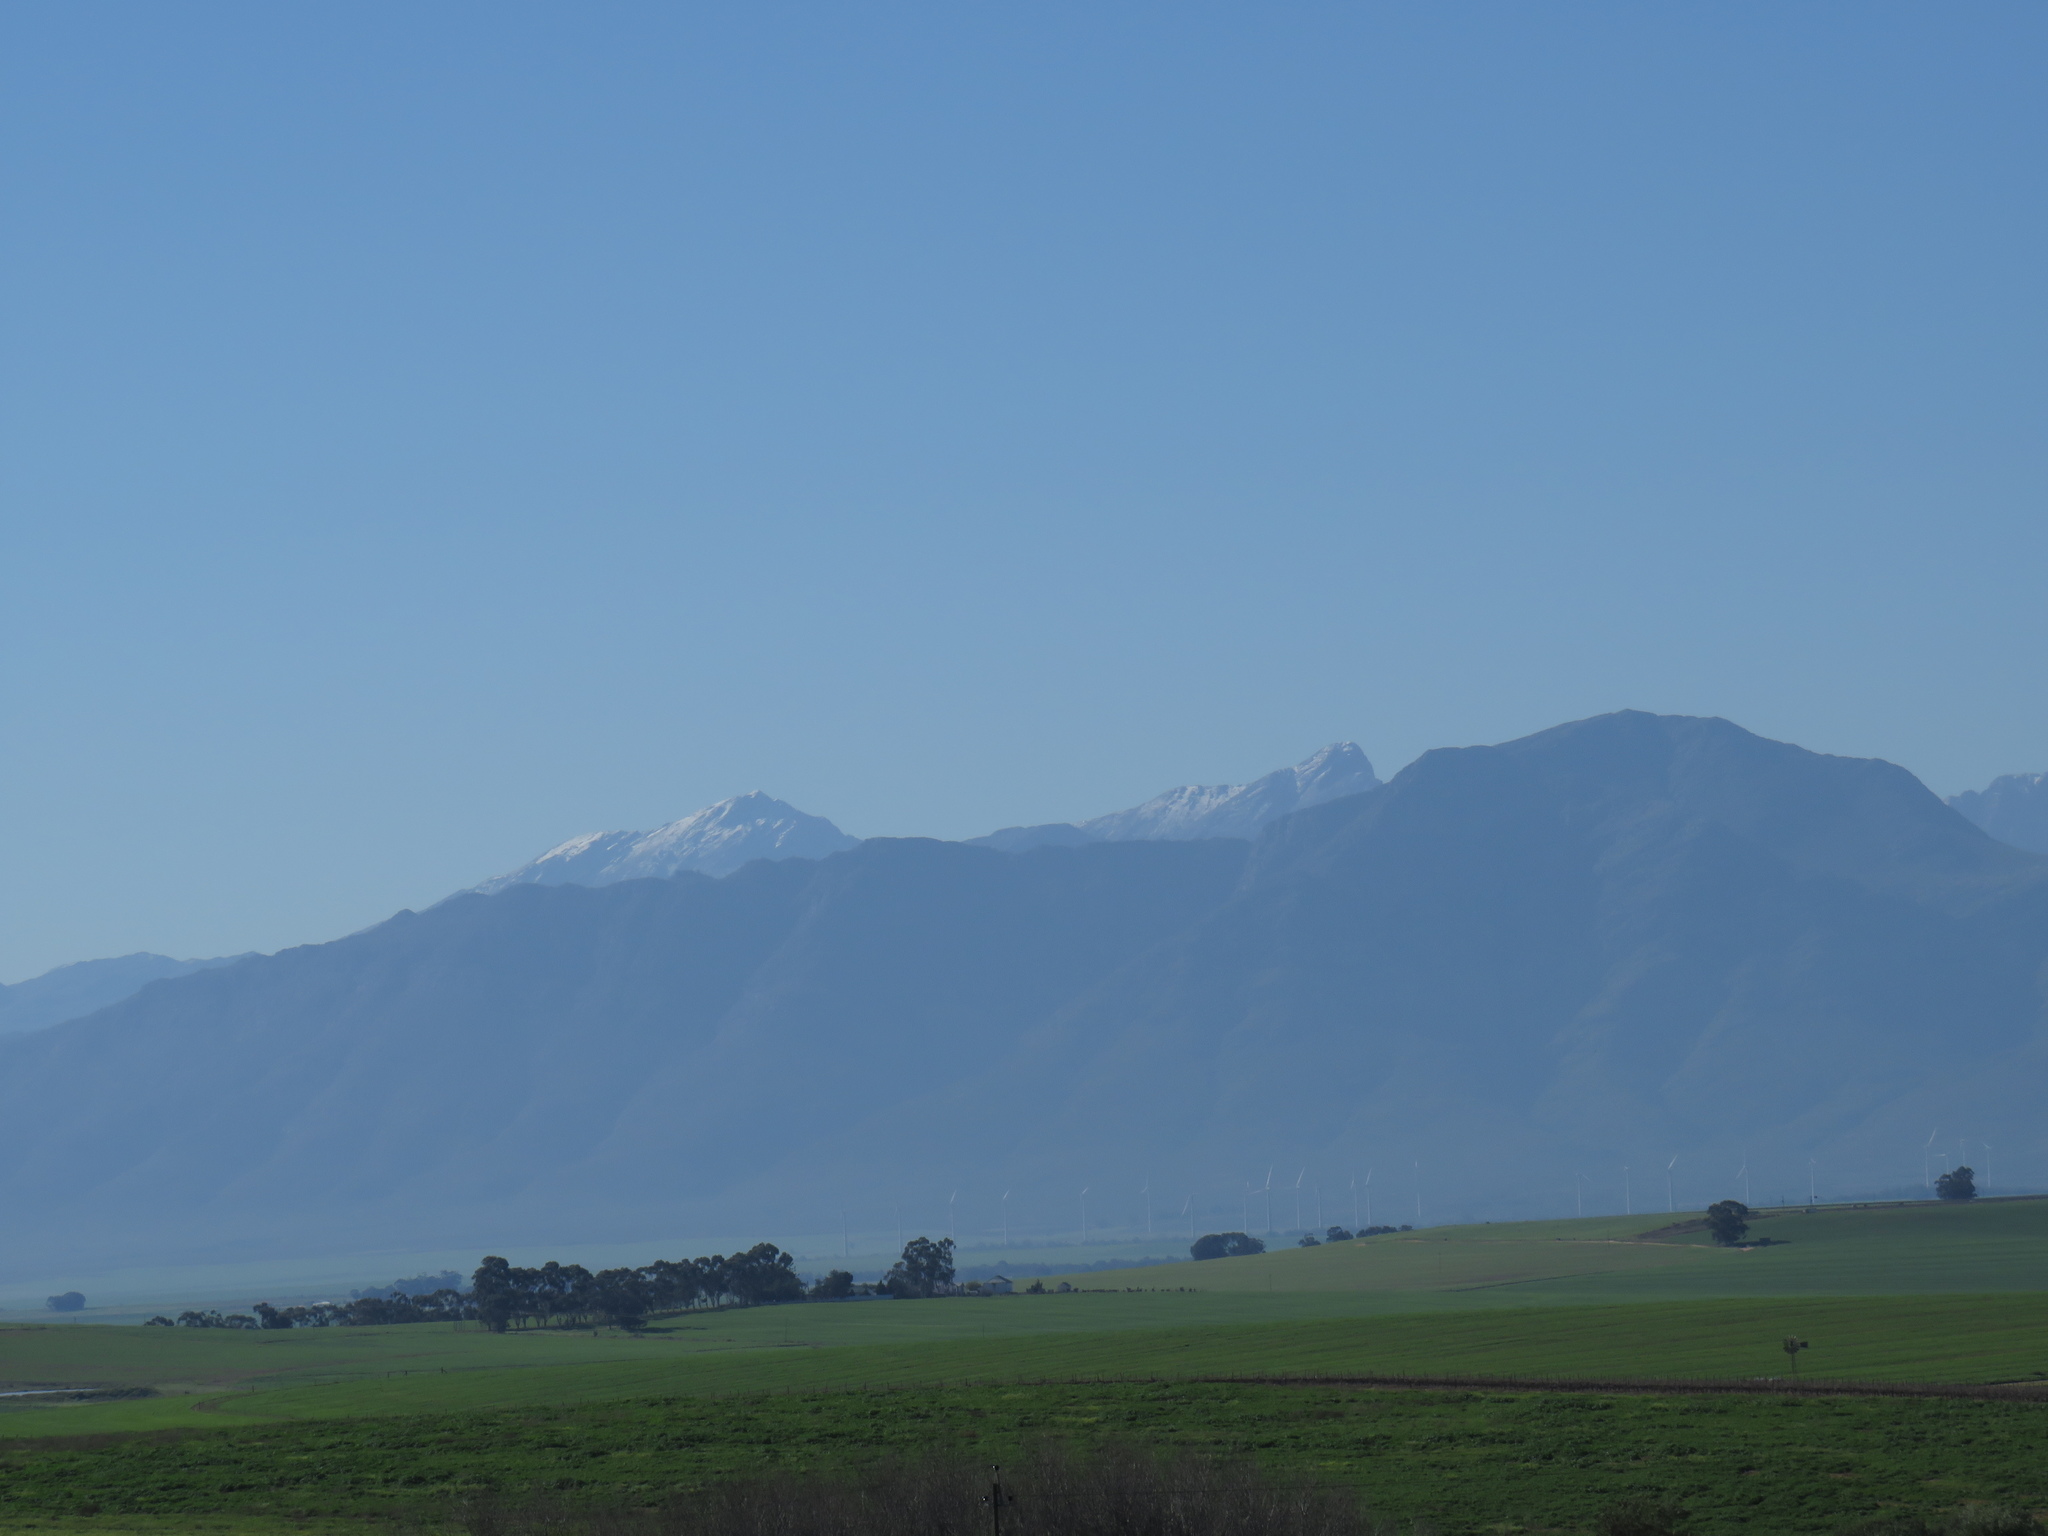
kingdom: Plantae
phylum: Tracheophyta
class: Magnoliopsida
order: Myrtales
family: Myrtaceae
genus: Eucalyptus
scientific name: Eucalyptus cladocalyx
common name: Sugargum
